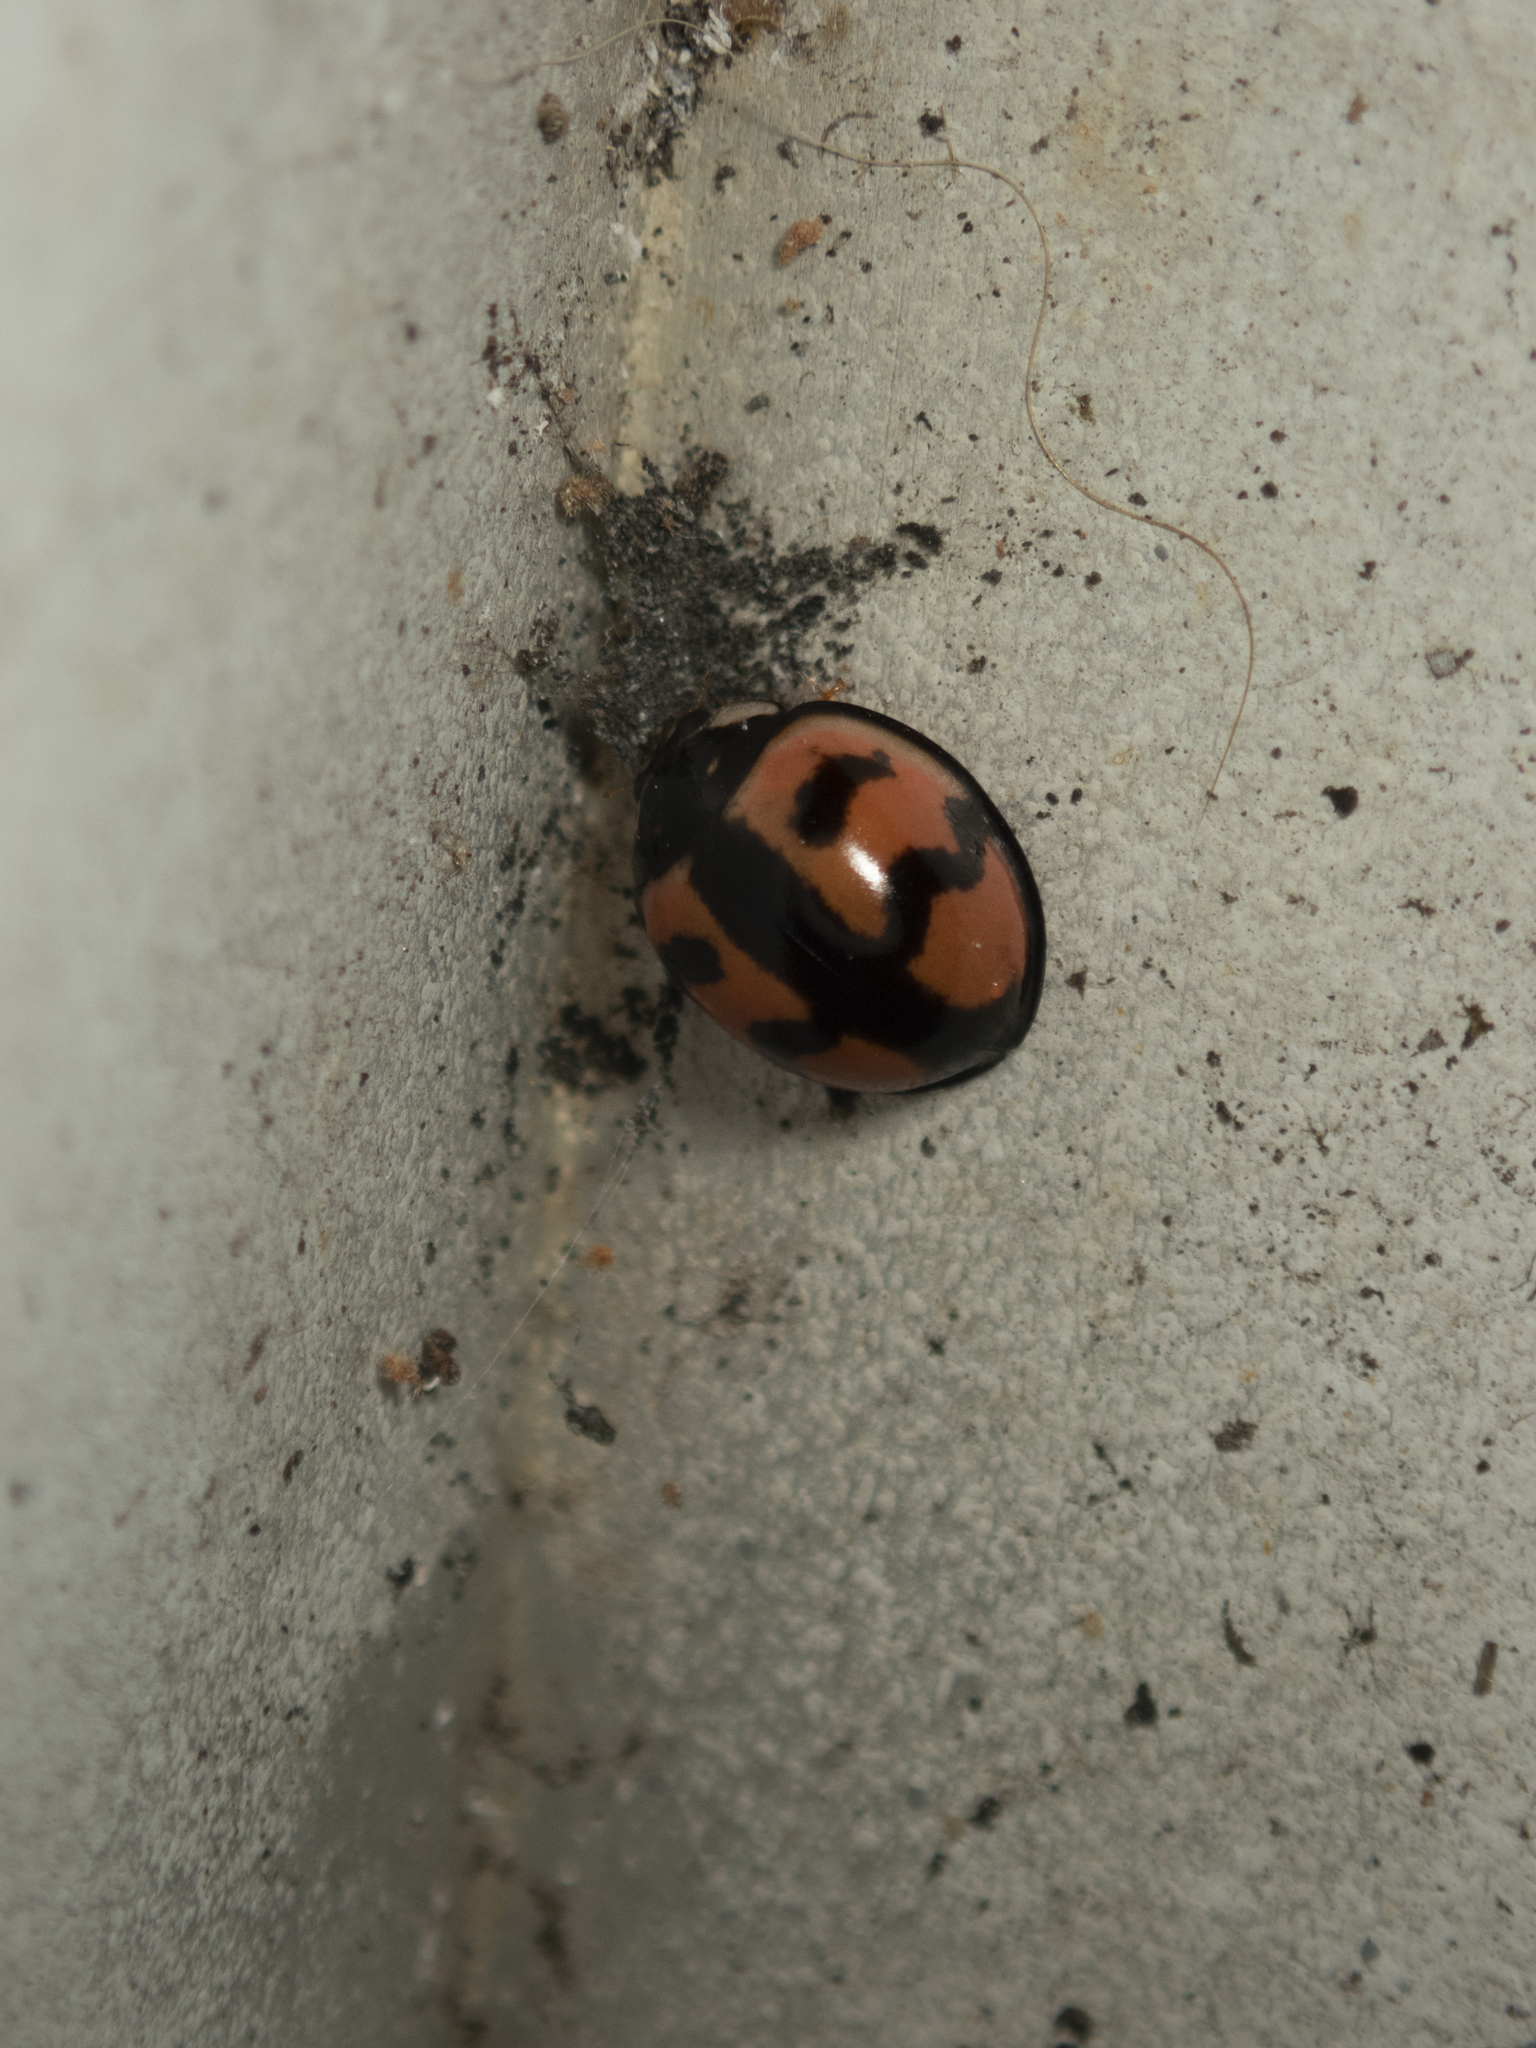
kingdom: Animalia
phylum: Arthropoda
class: Insecta
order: Coleoptera
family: Coccinellidae
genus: Cheilomenes
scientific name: Cheilomenes sexmaculata
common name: Ladybird beetle
